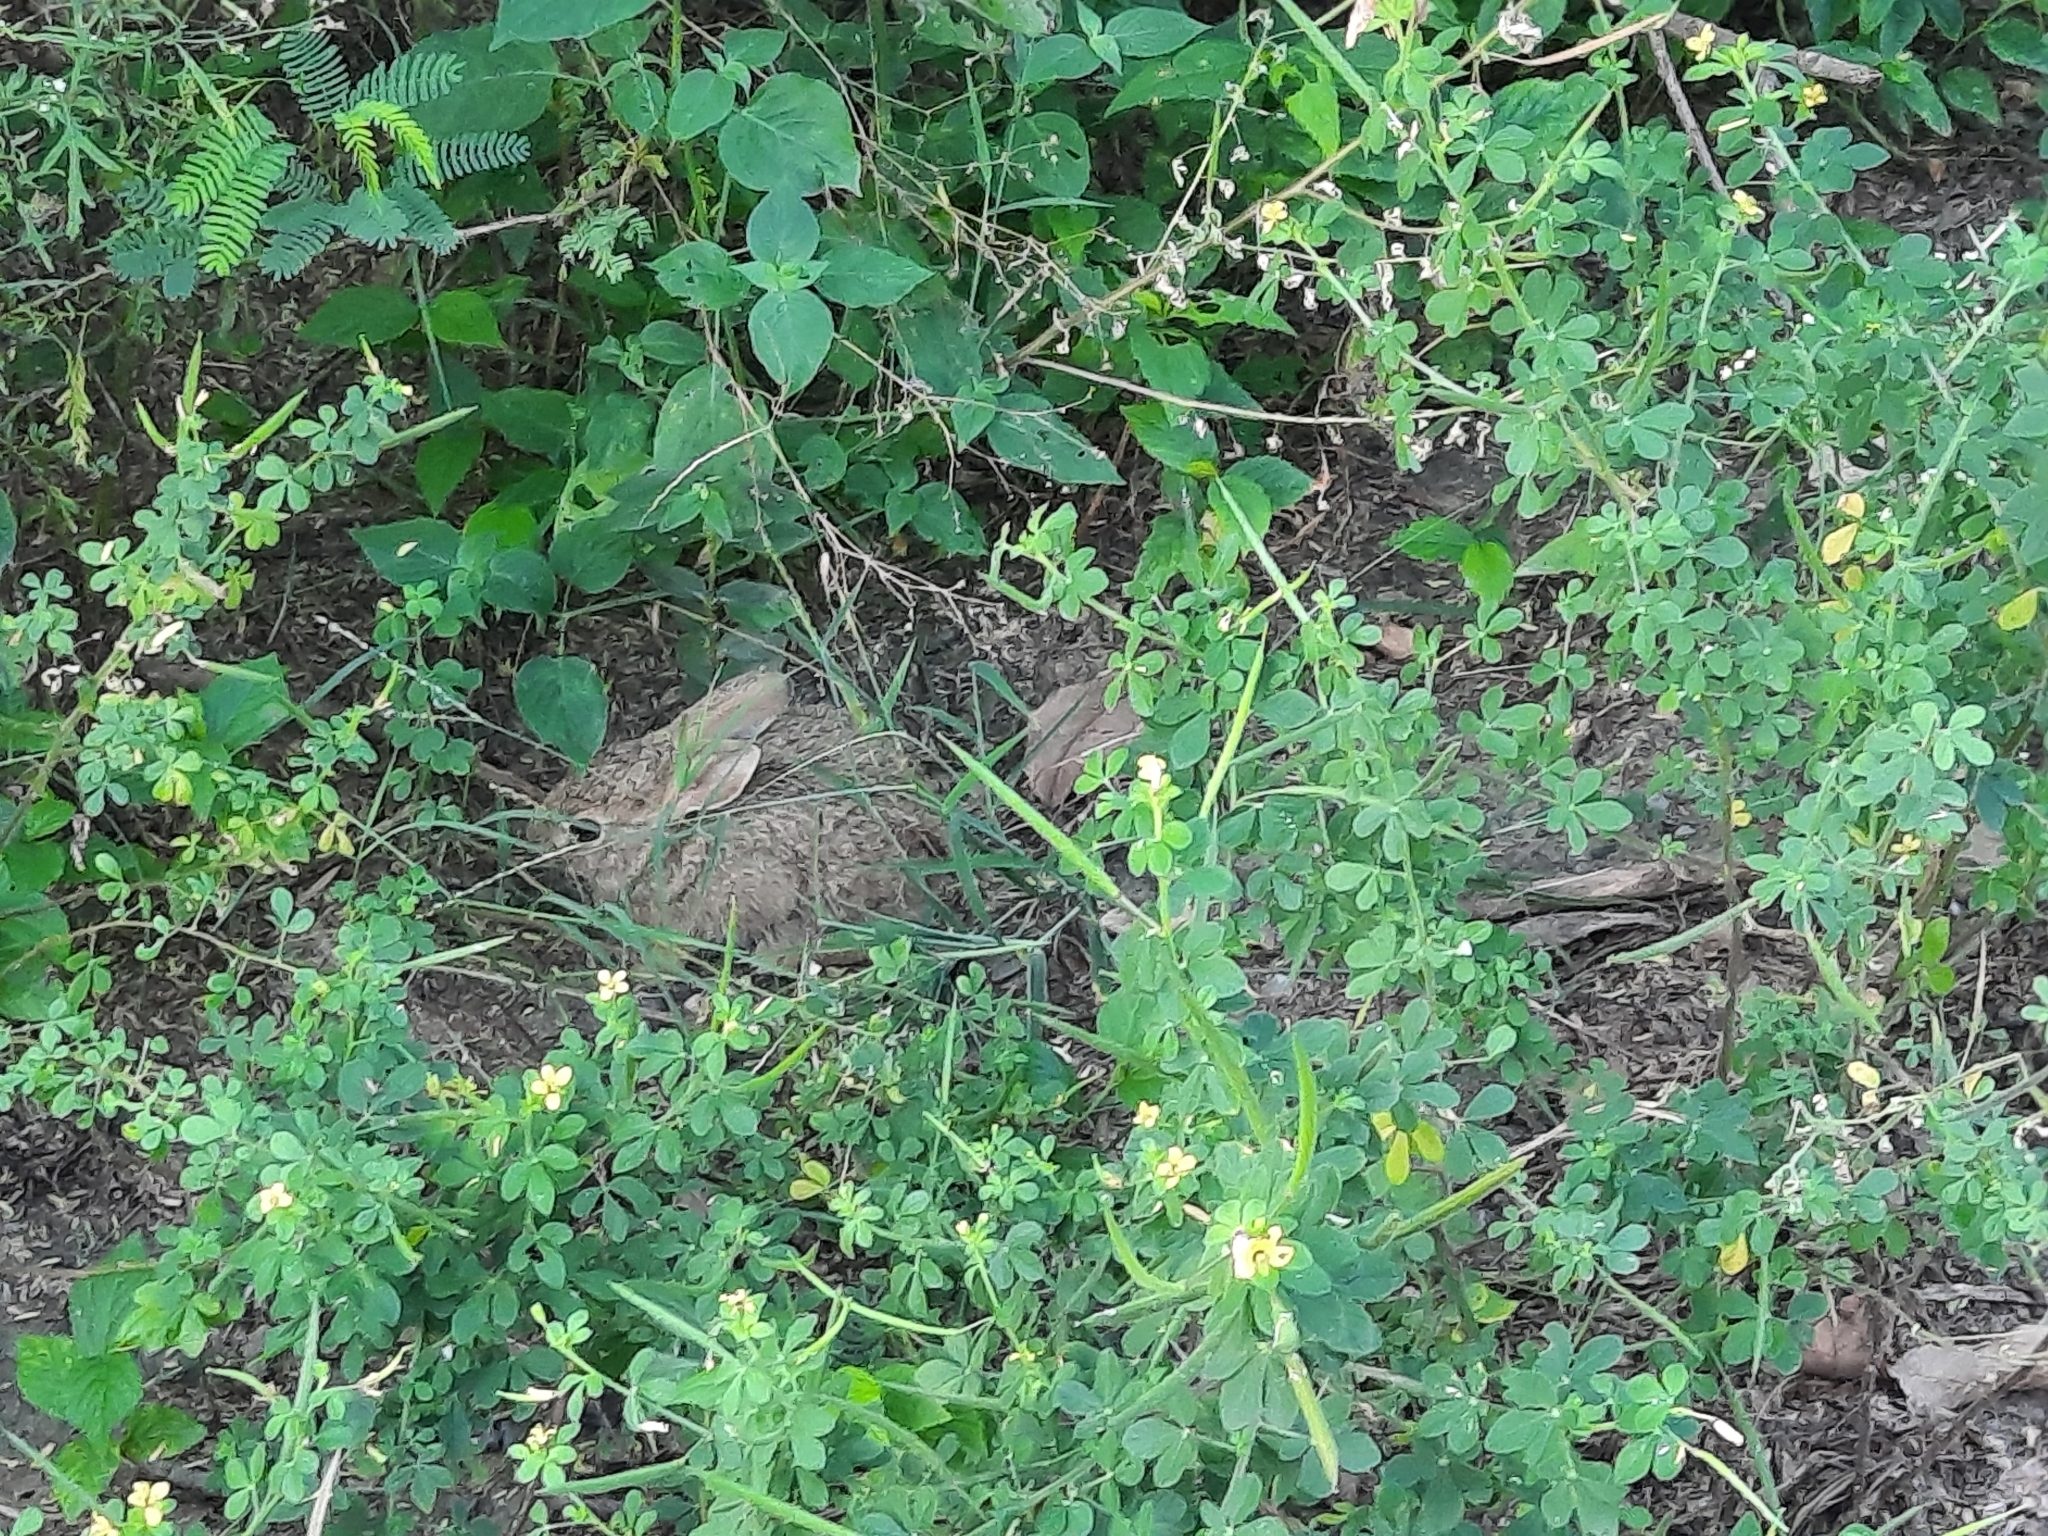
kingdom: Animalia
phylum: Chordata
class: Mammalia
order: Lagomorpha
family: Leporidae
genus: Lepus
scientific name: Lepus nigricollis
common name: Indian hare
